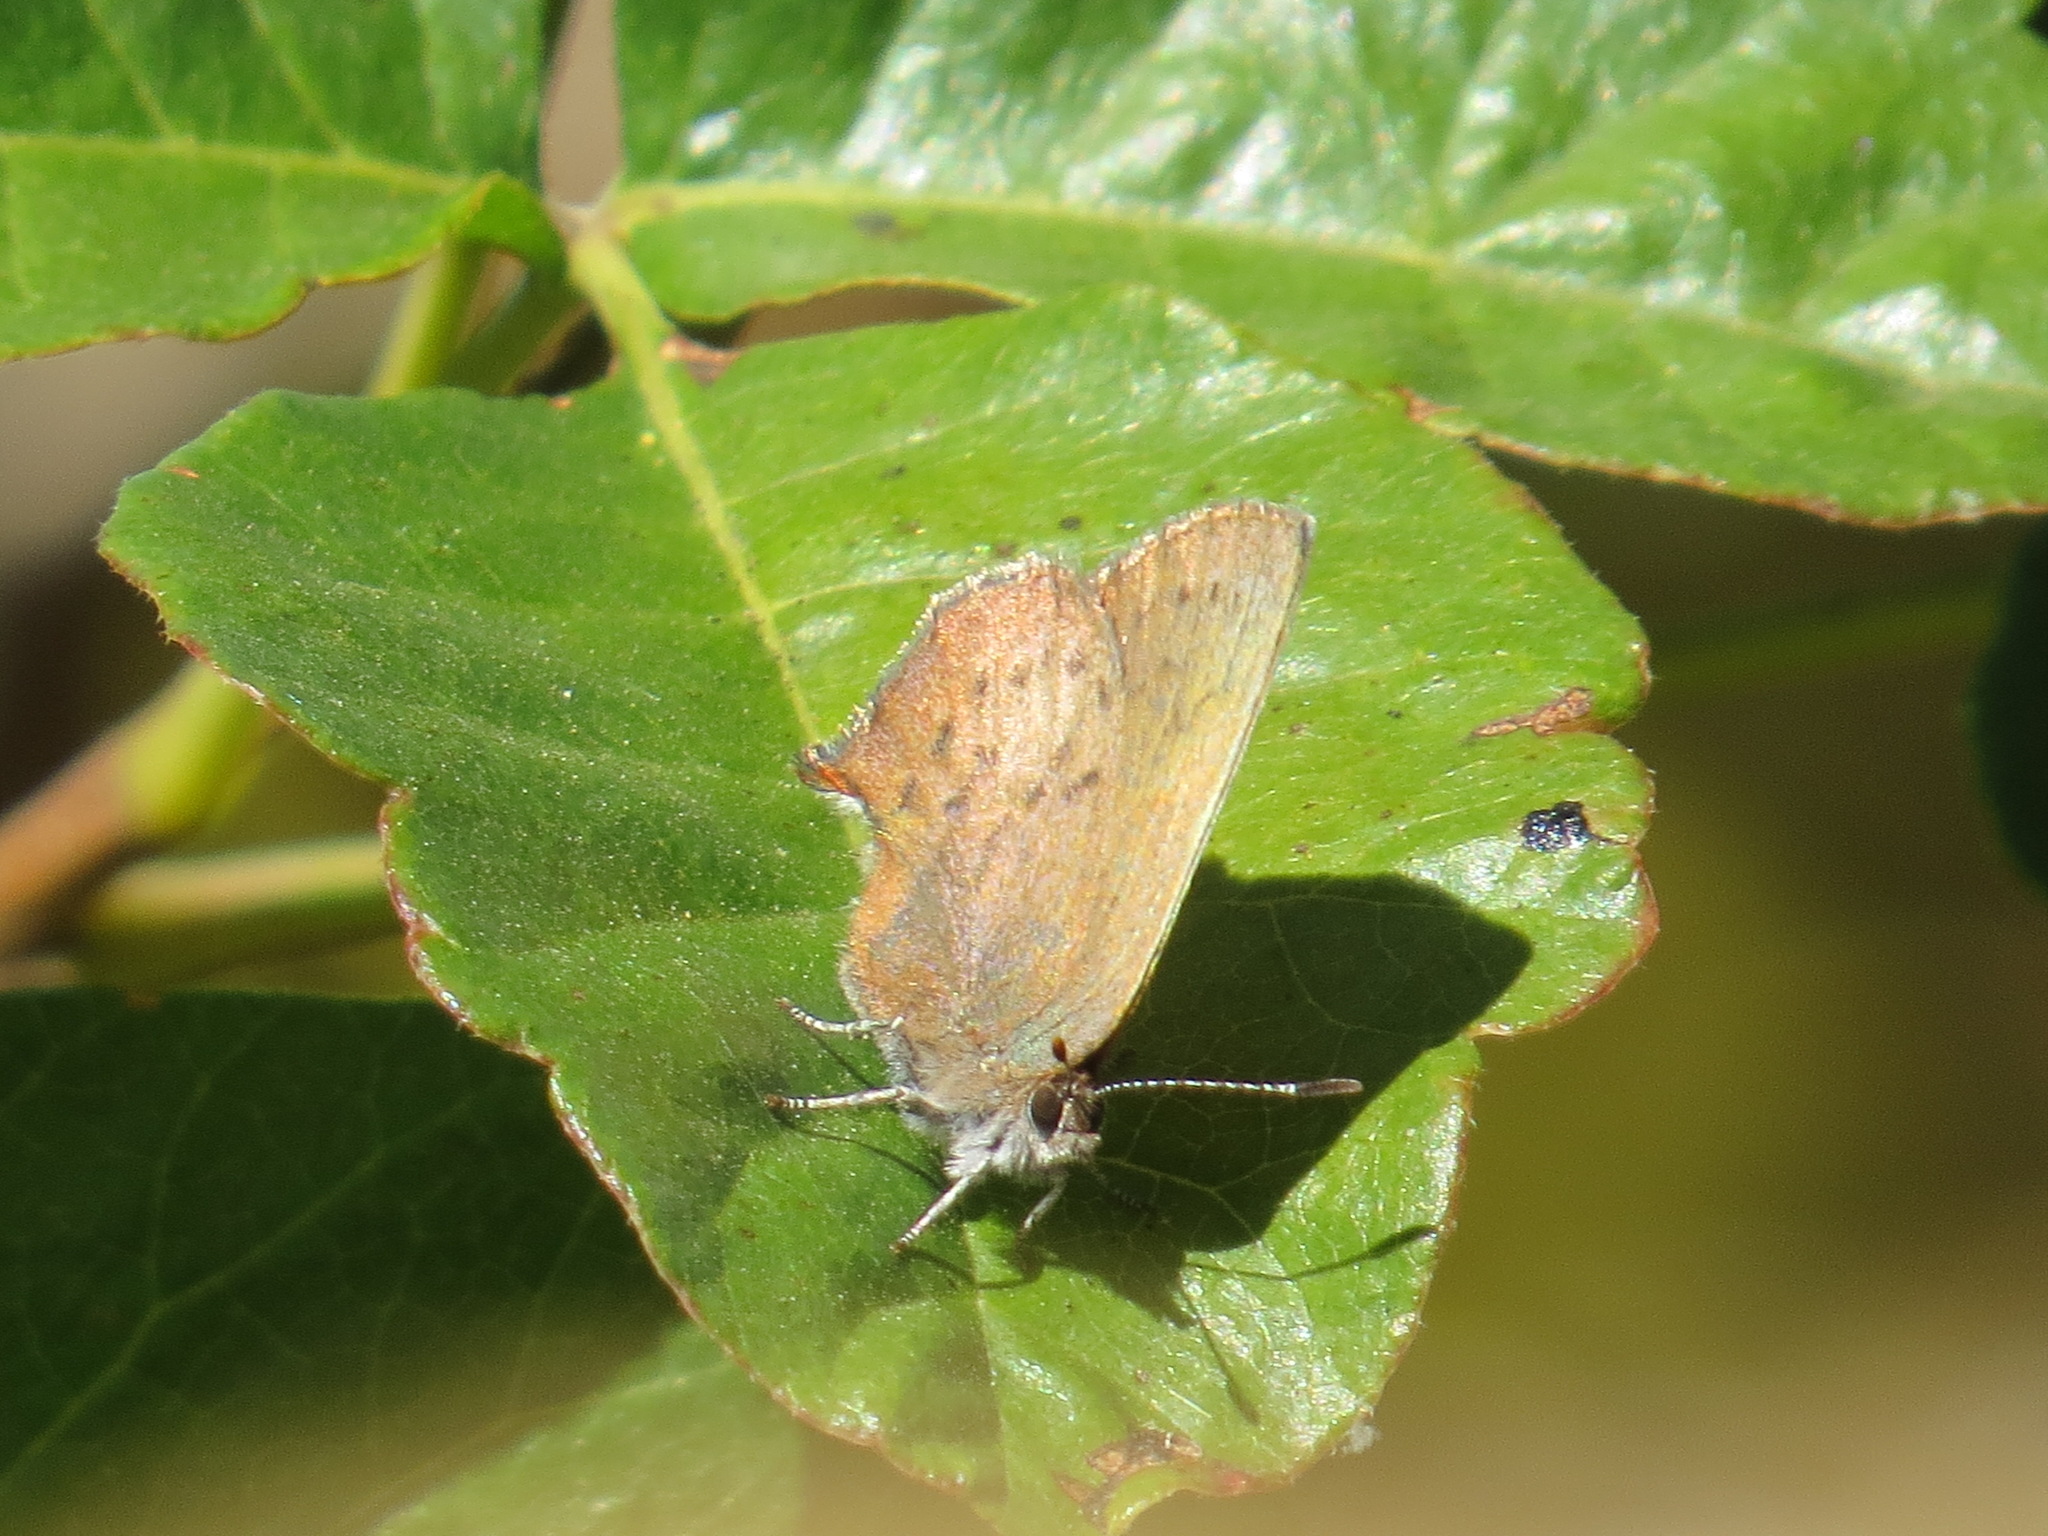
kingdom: Animalia
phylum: Arthropoda
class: Insecta
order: Lepidoptera
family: Lycaenidae
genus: Incisalia
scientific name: Incisalia irioides
